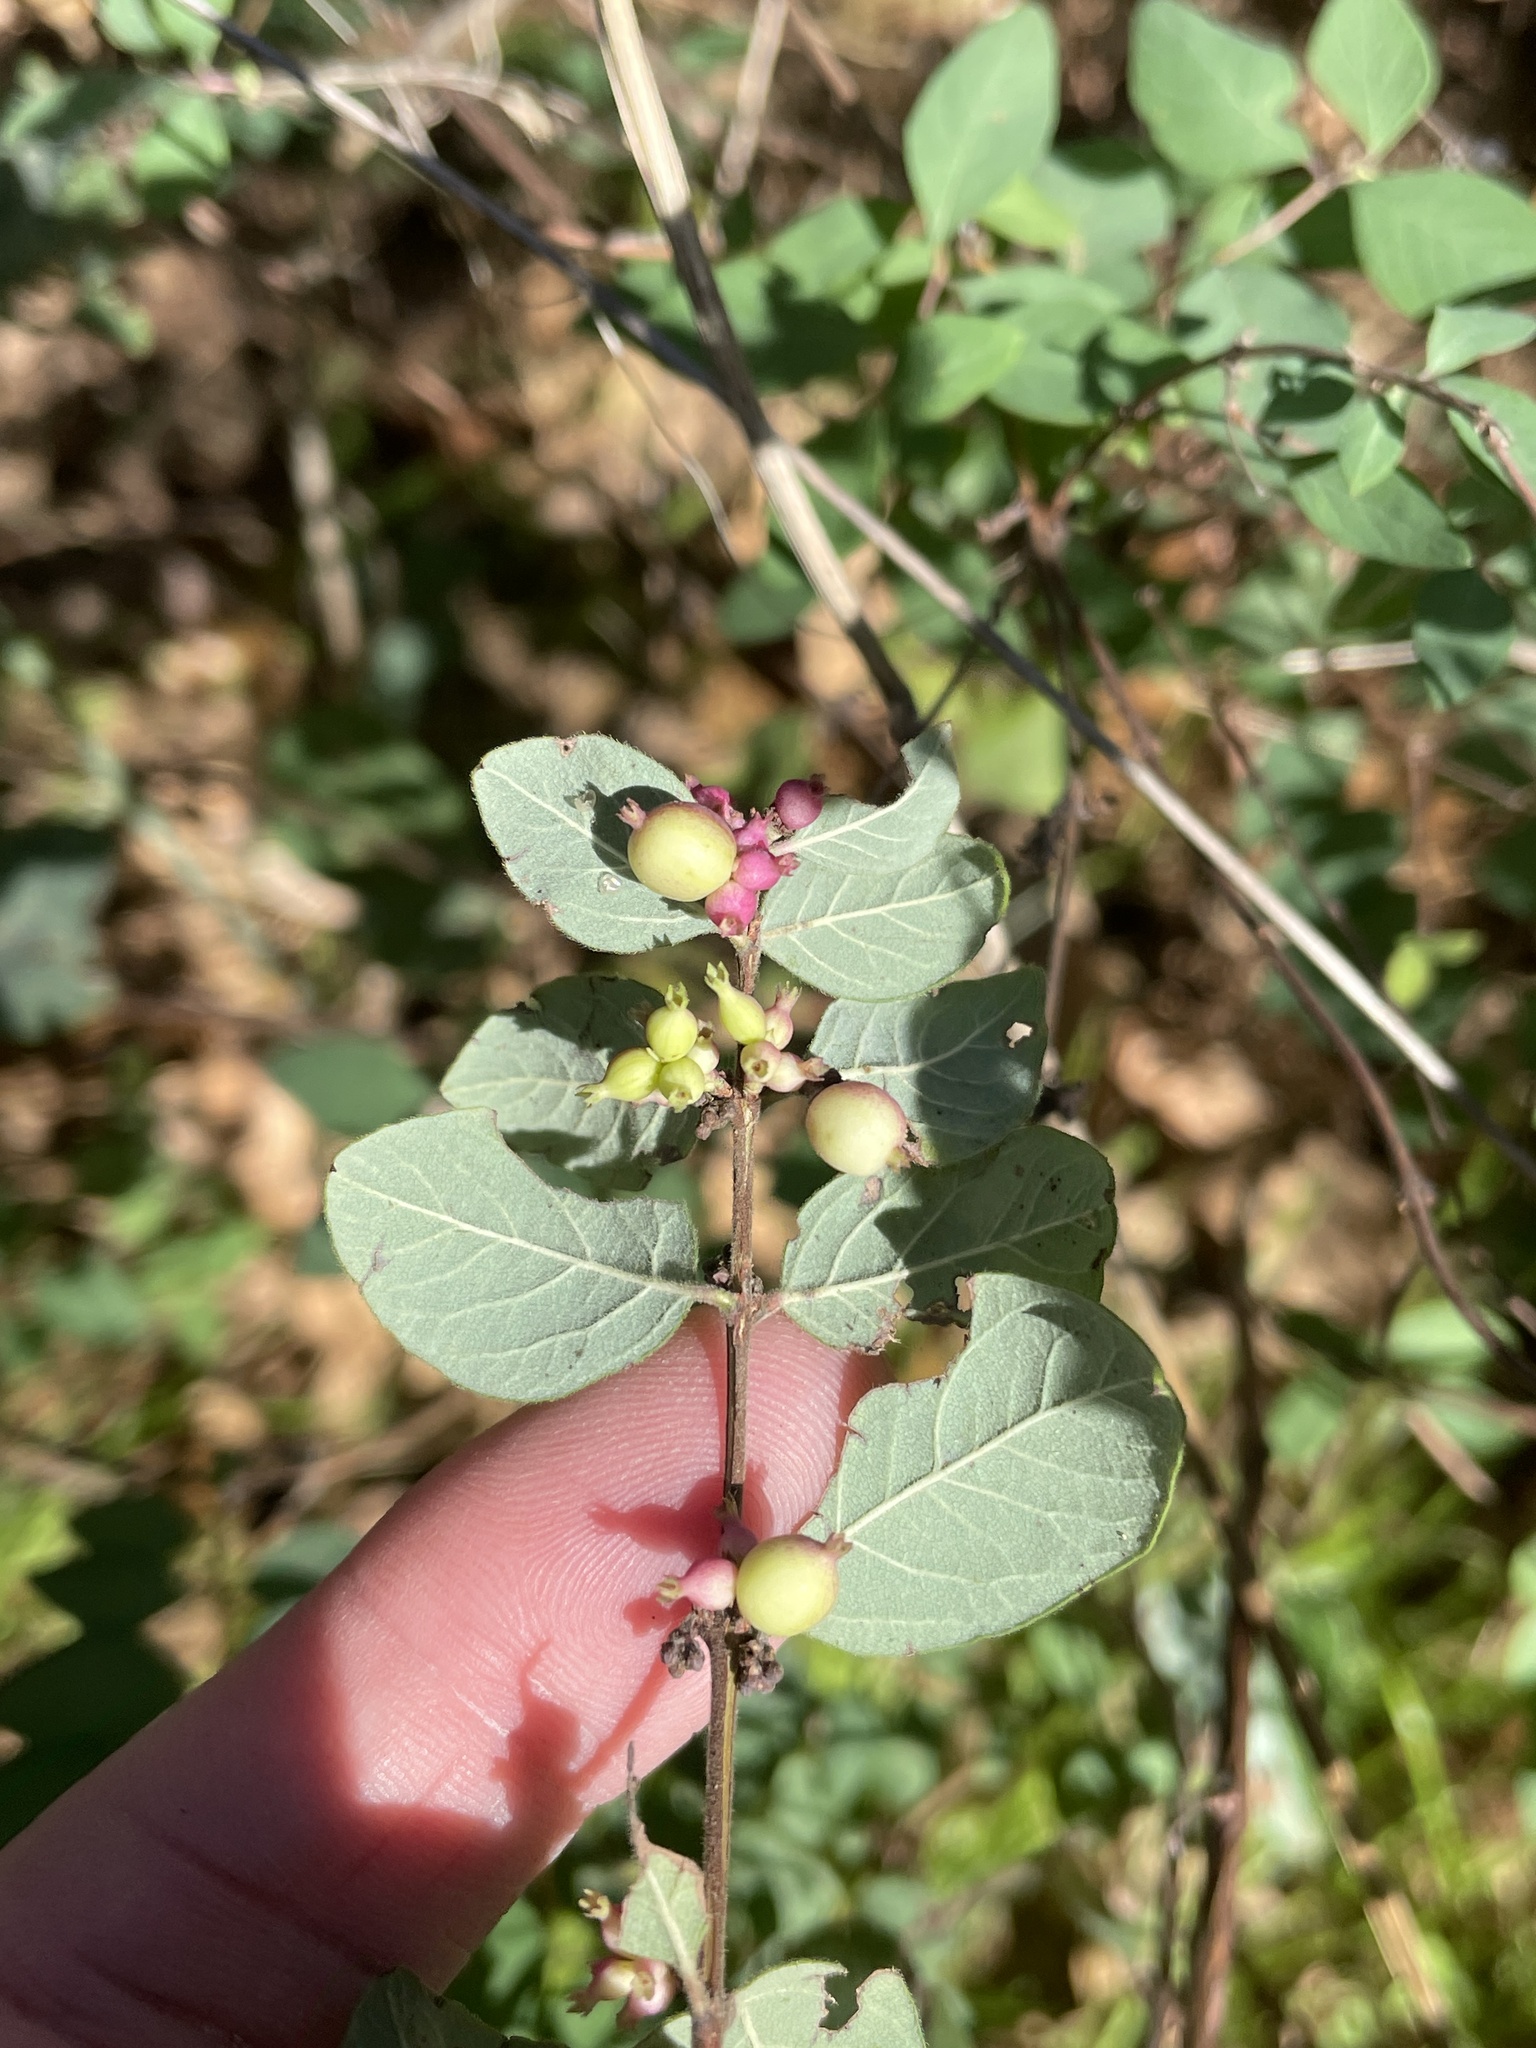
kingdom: Plantae
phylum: Tracheophyta
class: Magnoliopsida
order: Dipsacales
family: Caprifoliaceae
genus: Symphoricarpos
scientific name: Symphoricarpos orbiculatus
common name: Coralberry
